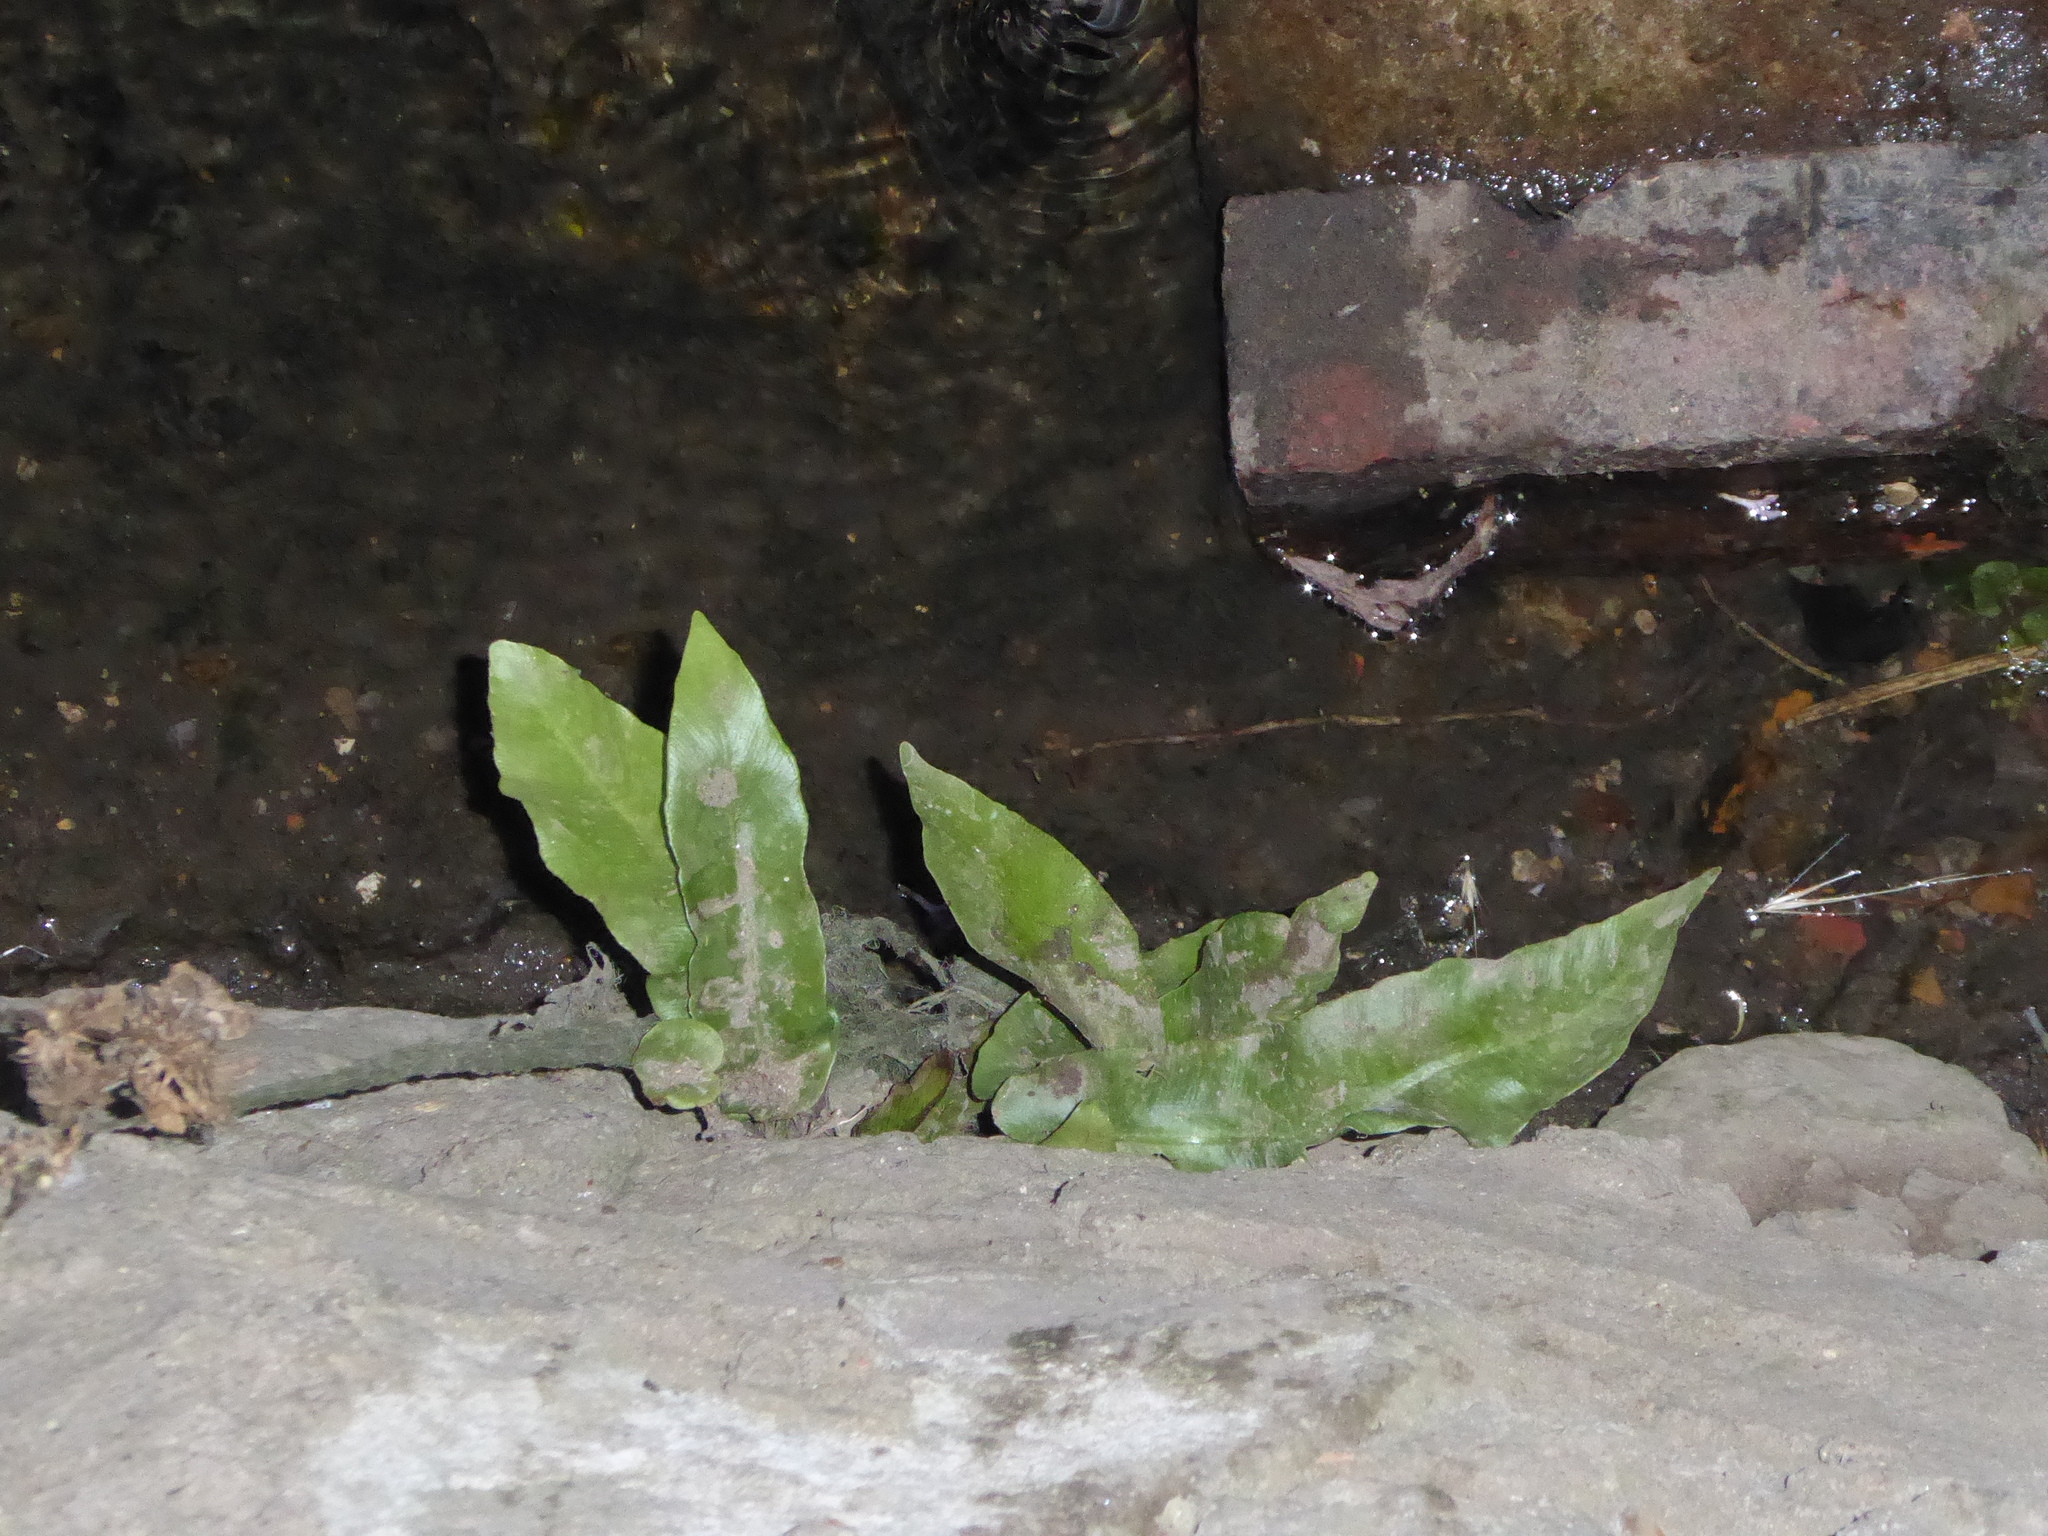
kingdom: Plantae
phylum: Tracheophyta
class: Polypodiopsida
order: Polypodiales
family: Aspleniaceae
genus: Asplenium
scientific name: Asplenium scolopendrium
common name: Hart's-tongue fern
